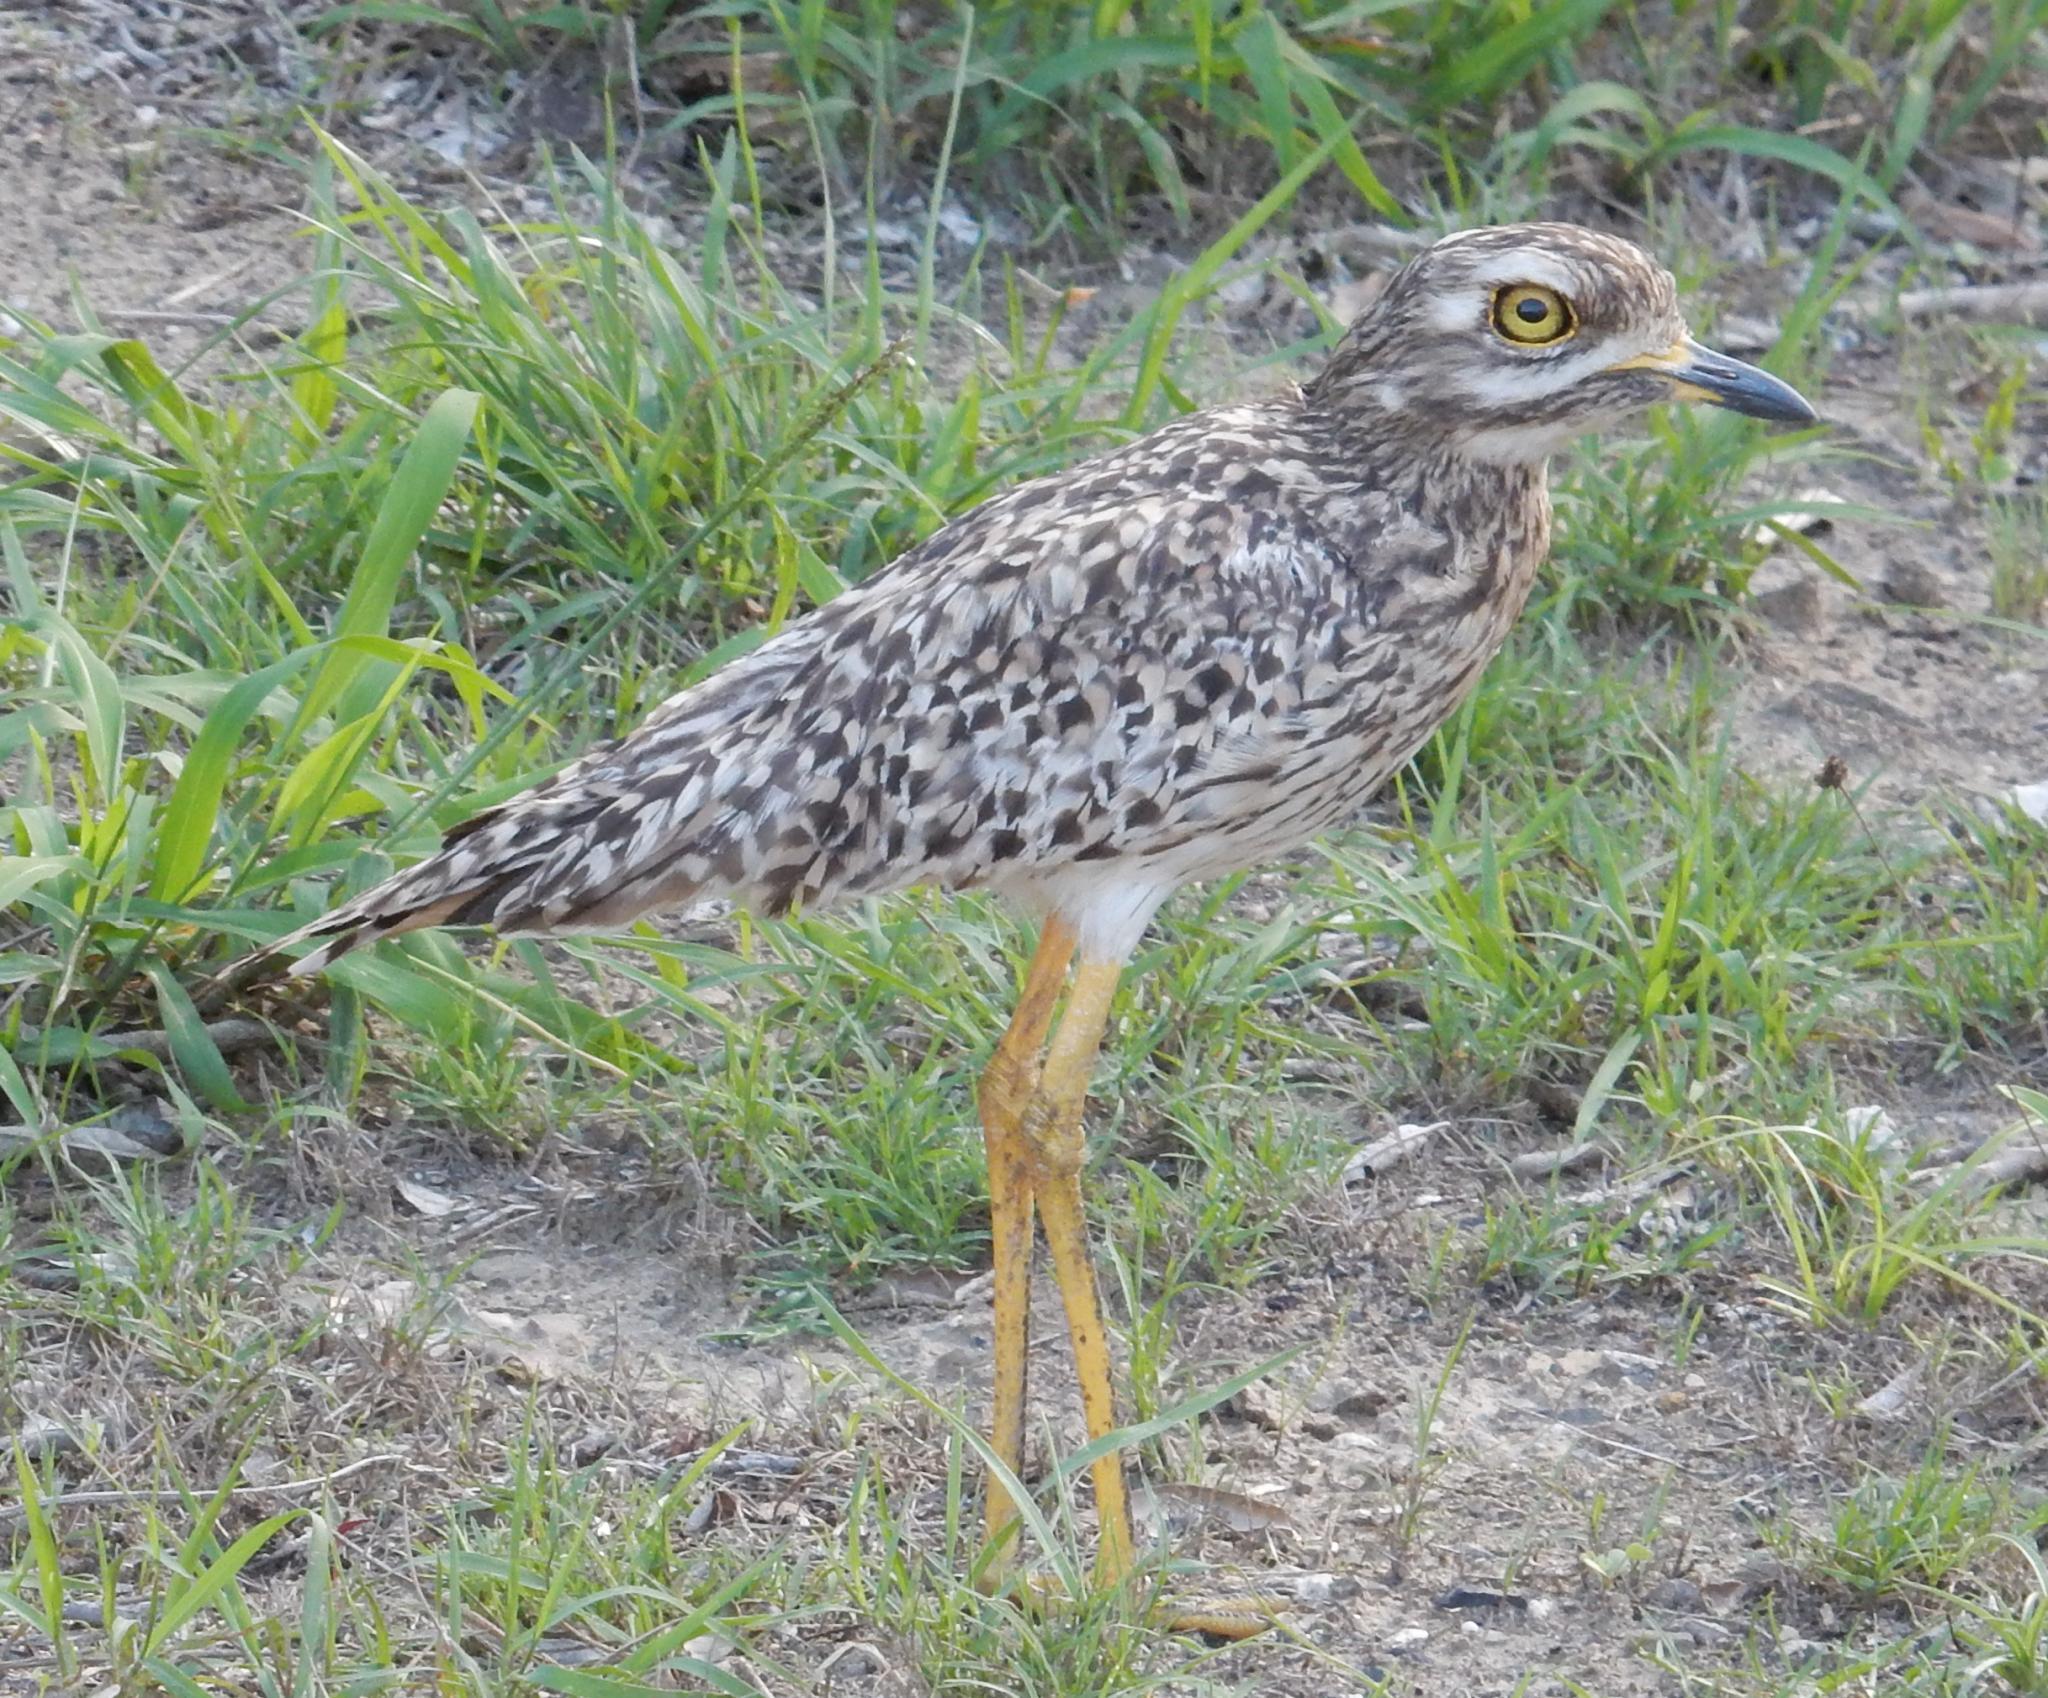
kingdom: Animalia
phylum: Chordata
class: Aves
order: Charadriiformes
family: Burhinidae
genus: Burhinus
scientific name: Burhinus capensis
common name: Spotted thick-knee
